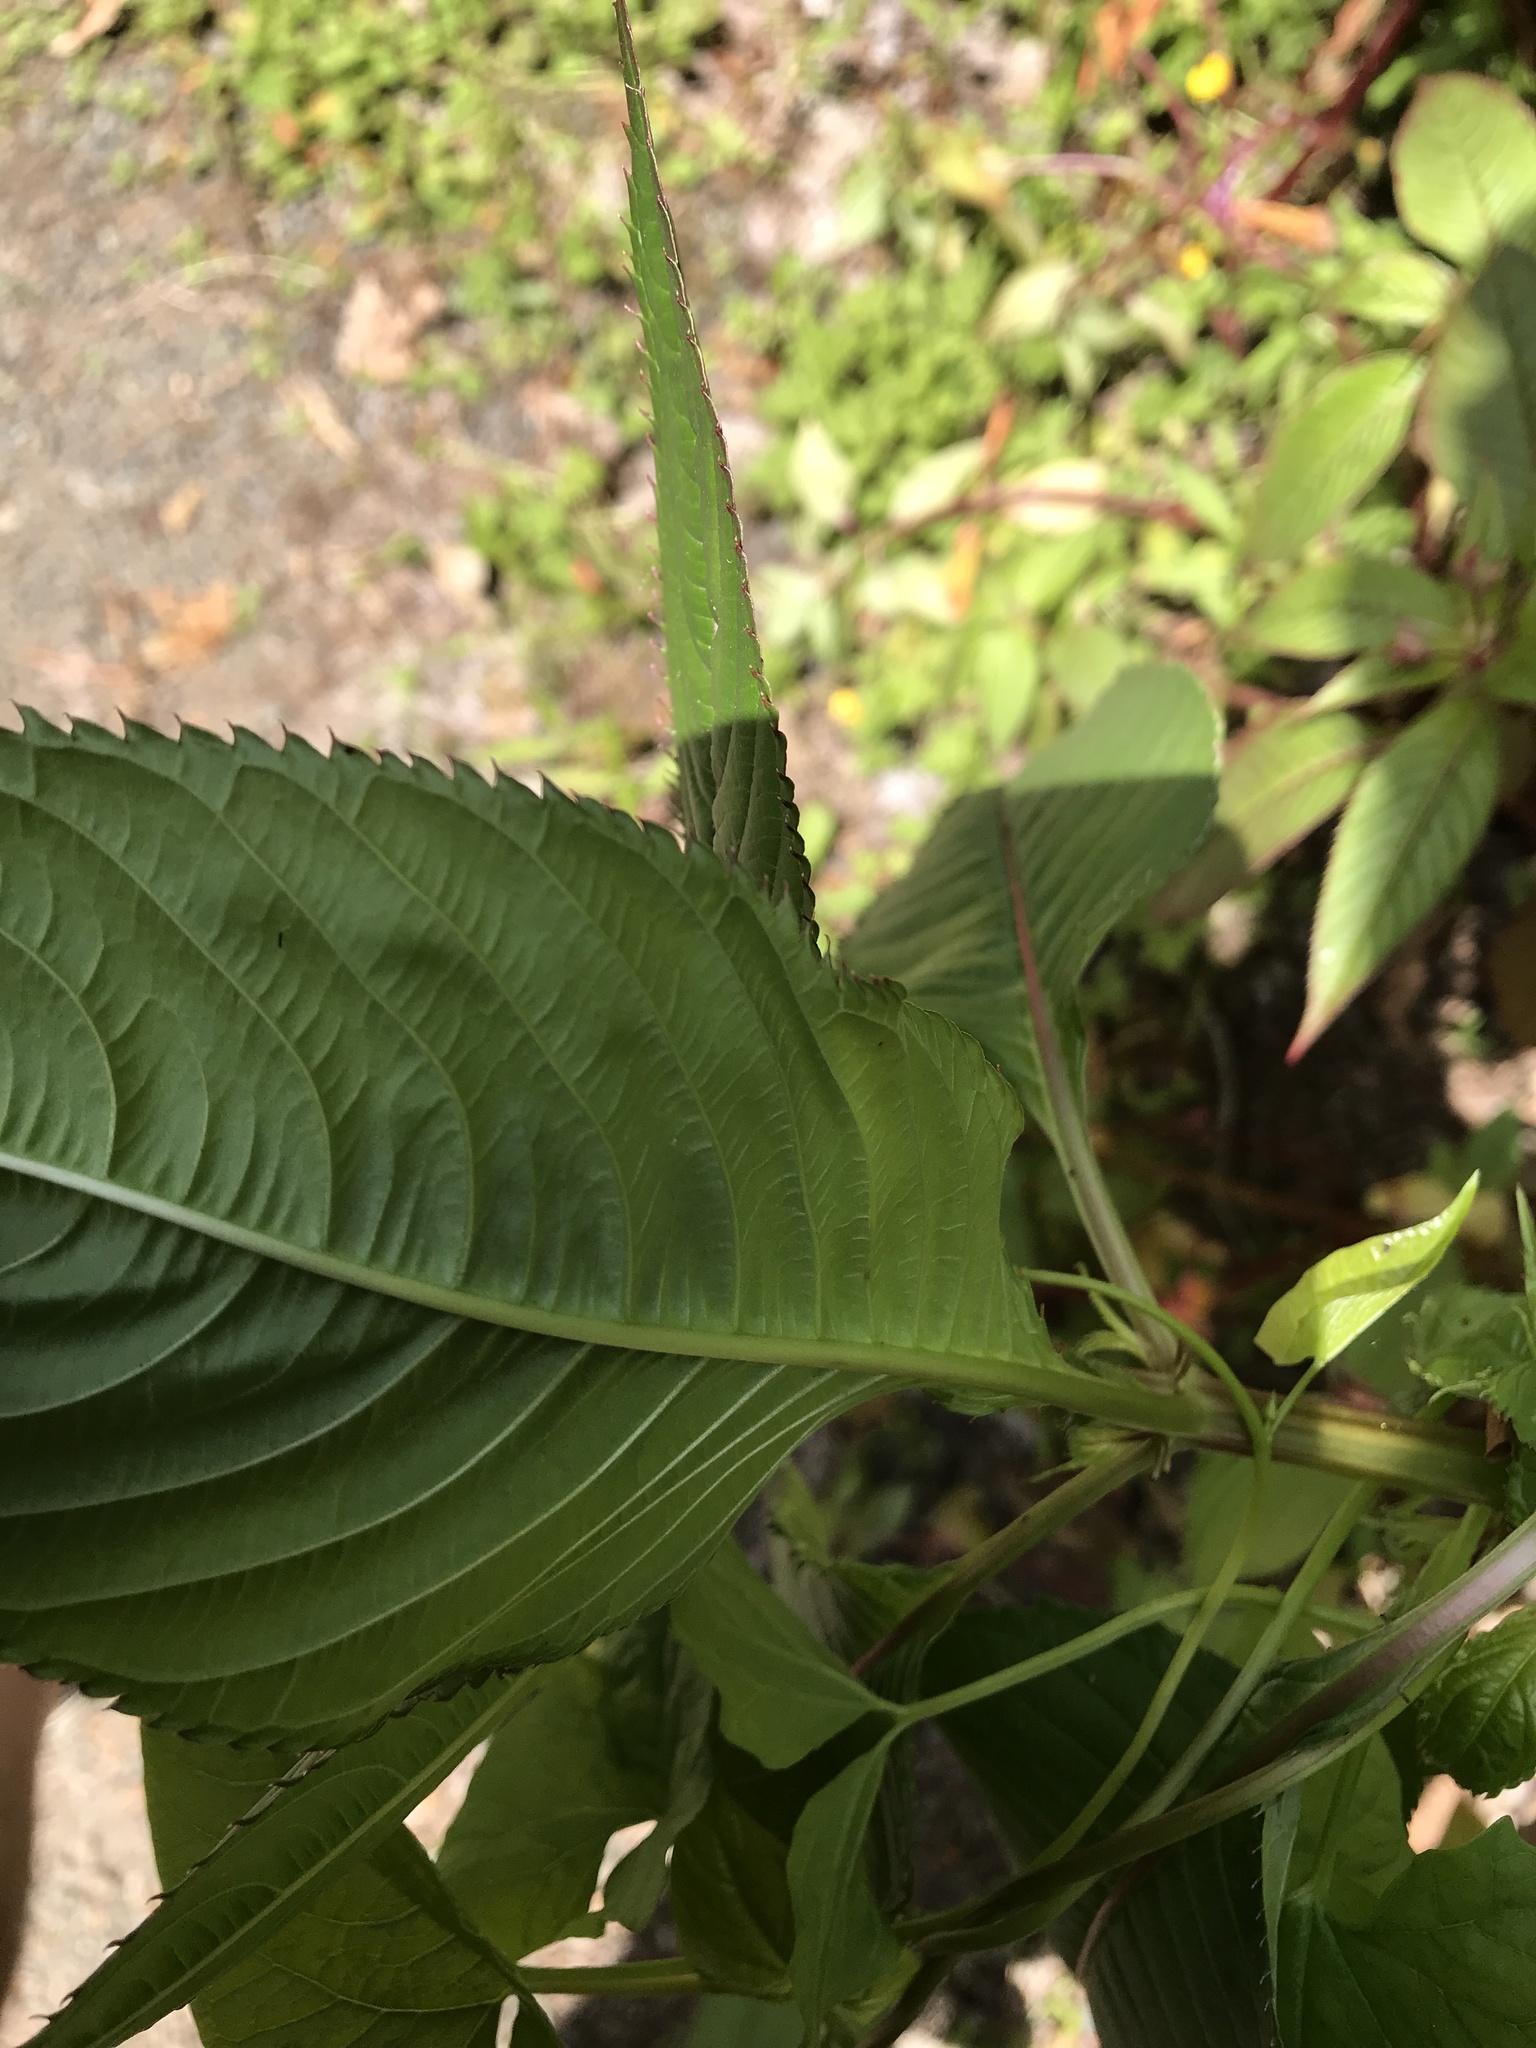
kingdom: Plantae
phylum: Tracheophyta
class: Magnoliopsida
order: Ericales
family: Balsaminaceae
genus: Impatiens
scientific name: Impatiens glandulifera
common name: Himalayan balsam
